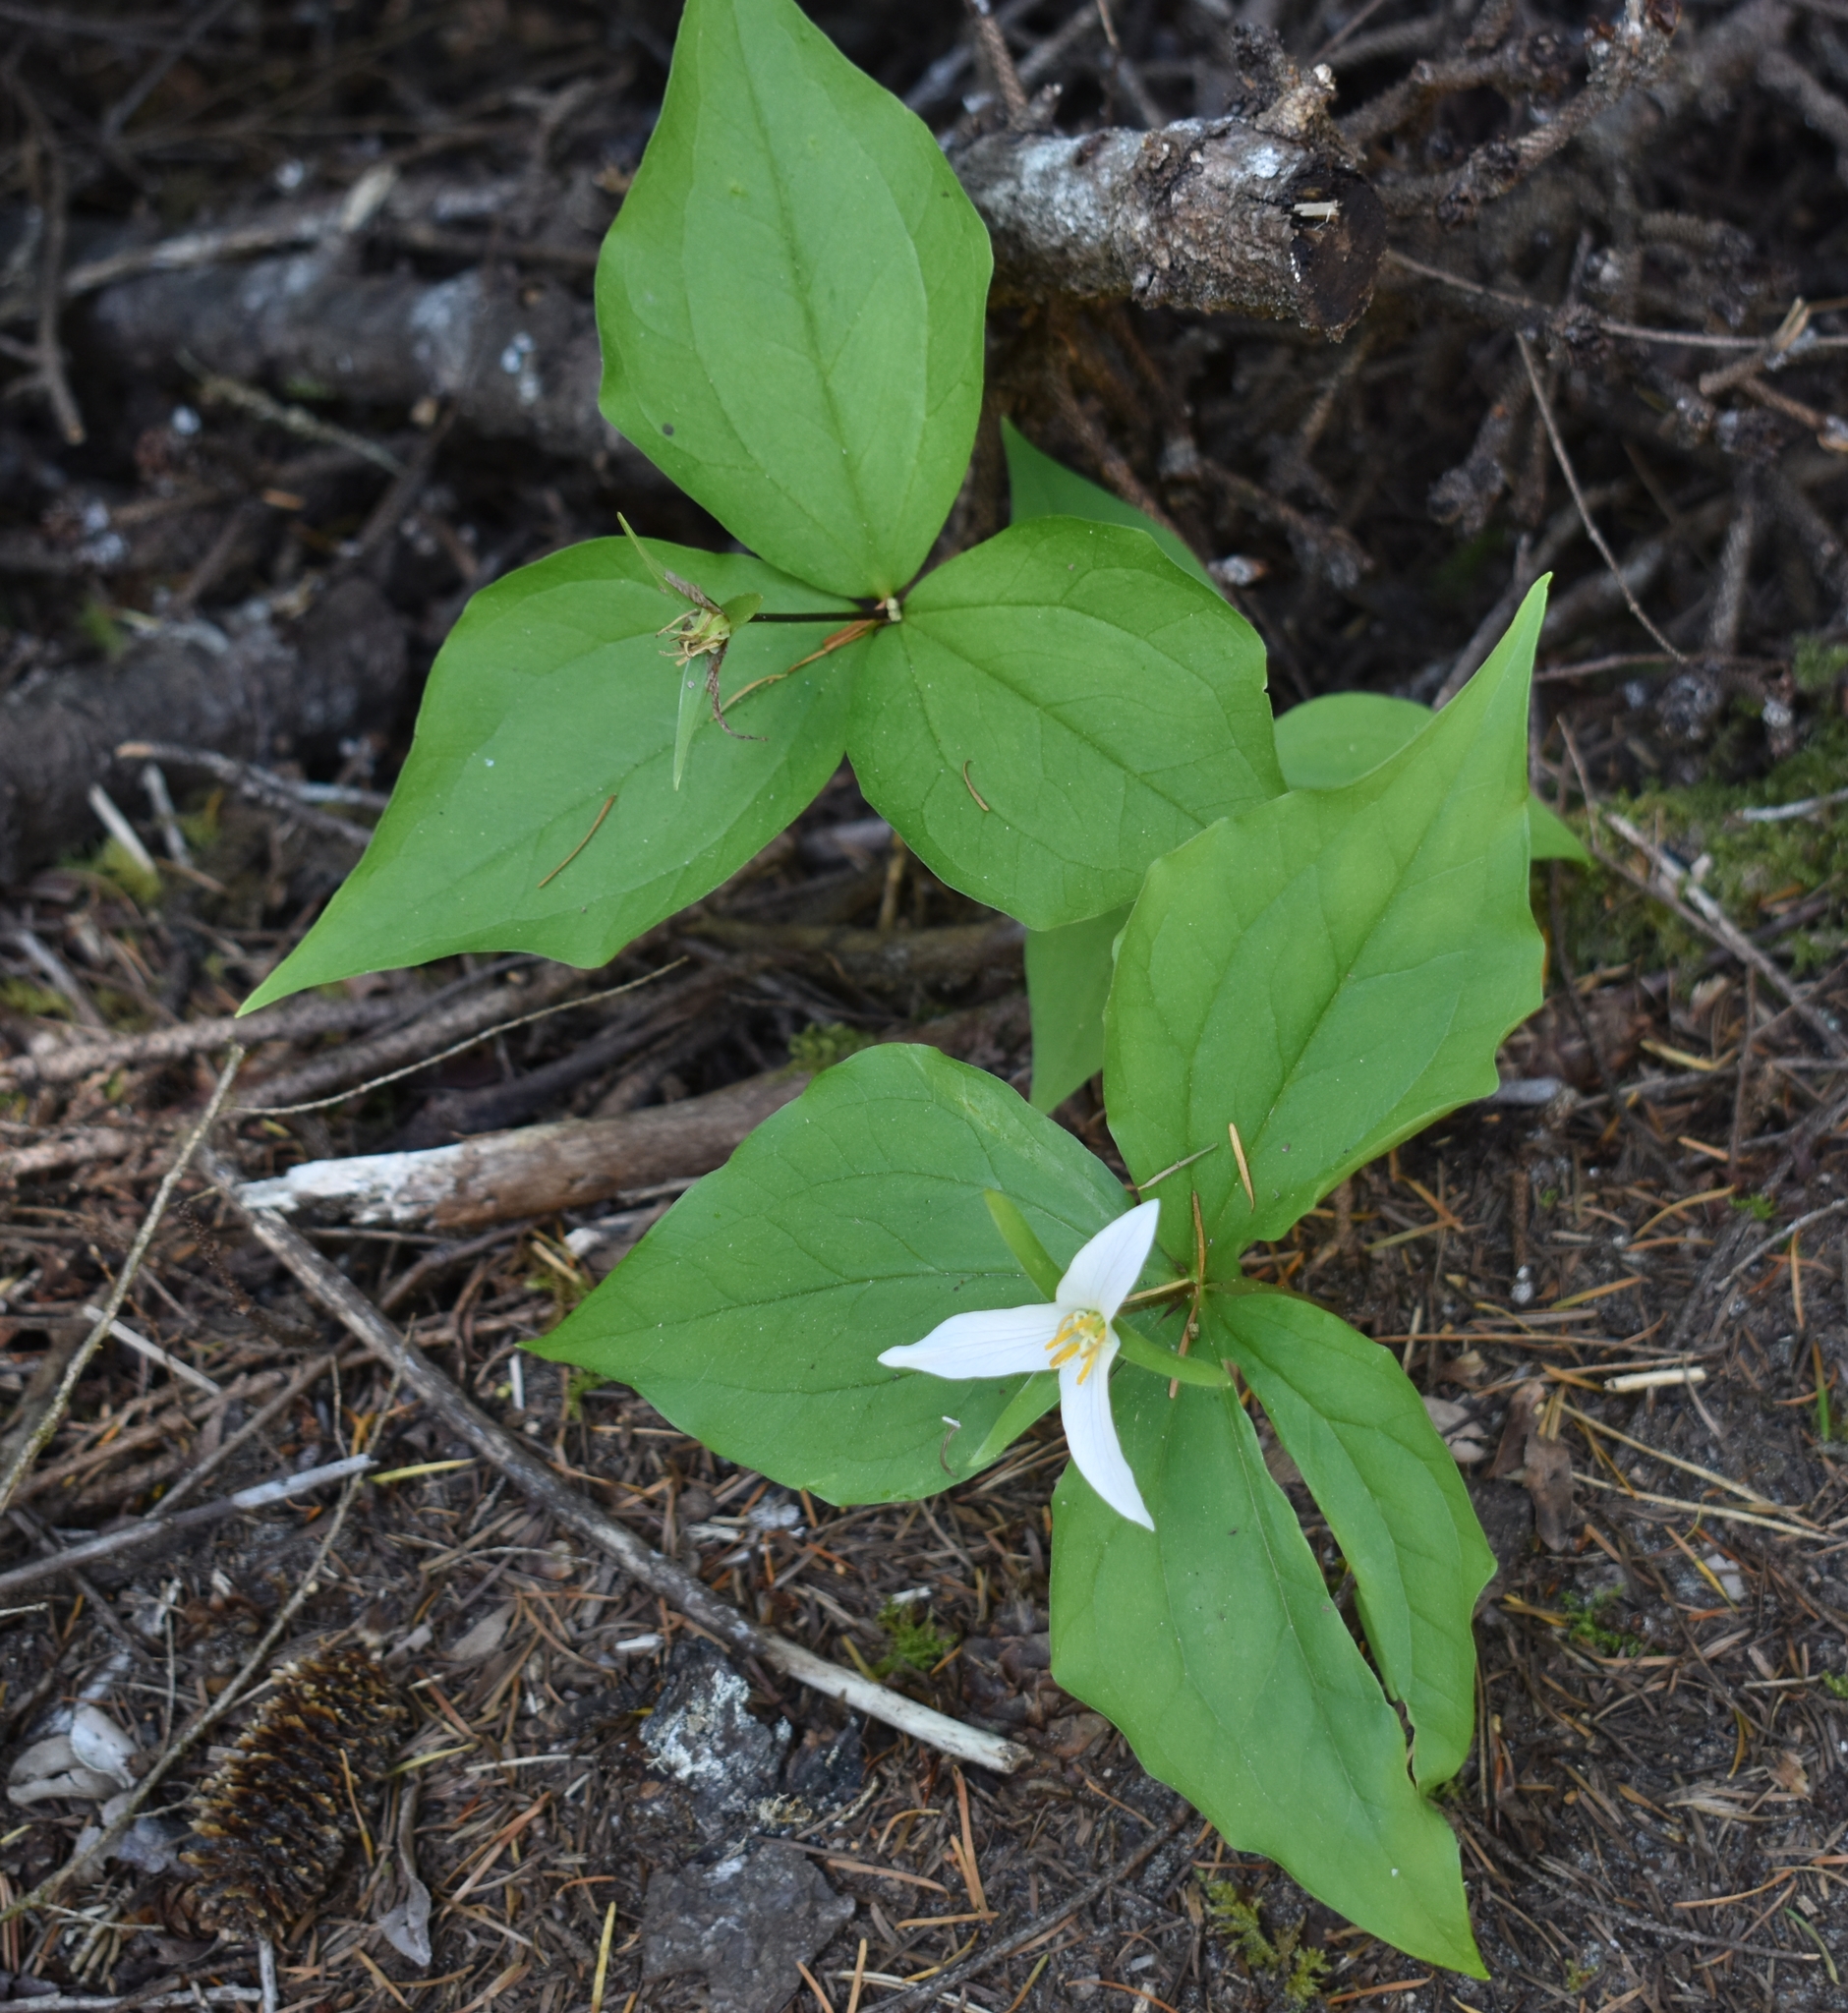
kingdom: Plantae
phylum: Tracheophyta
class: Liliopsida
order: Liliales
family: Melanthiaceae
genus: Trillium
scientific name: Trillium ovatum
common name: Pacific trillium
